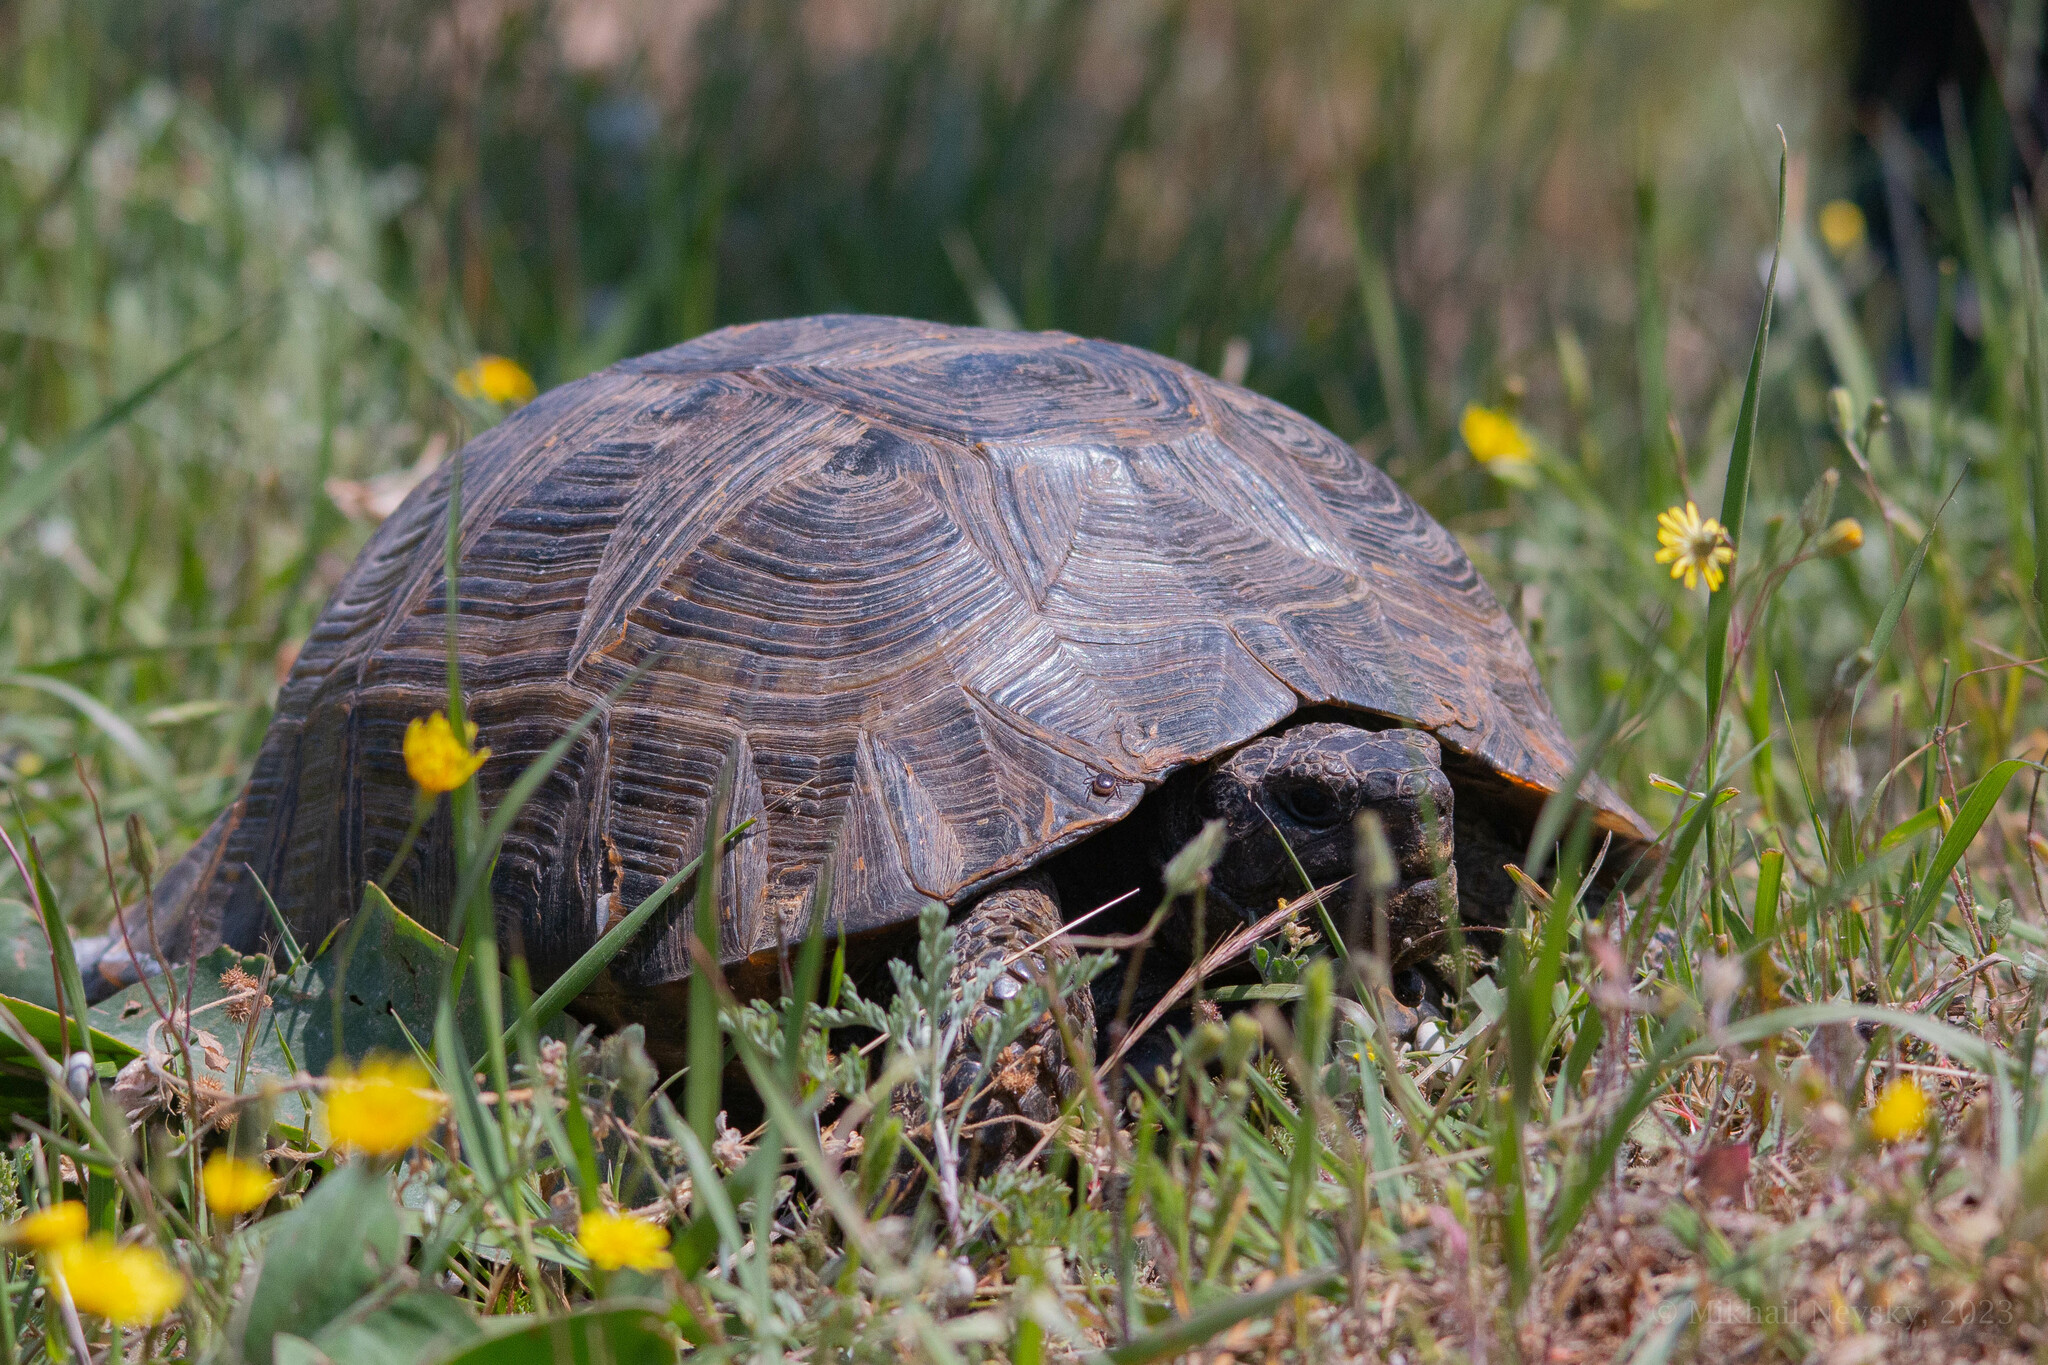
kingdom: Animalia
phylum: Chordata
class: Testudines
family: Testudinidae
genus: Testudo
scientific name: Testudo graeca
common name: Common tortoise
